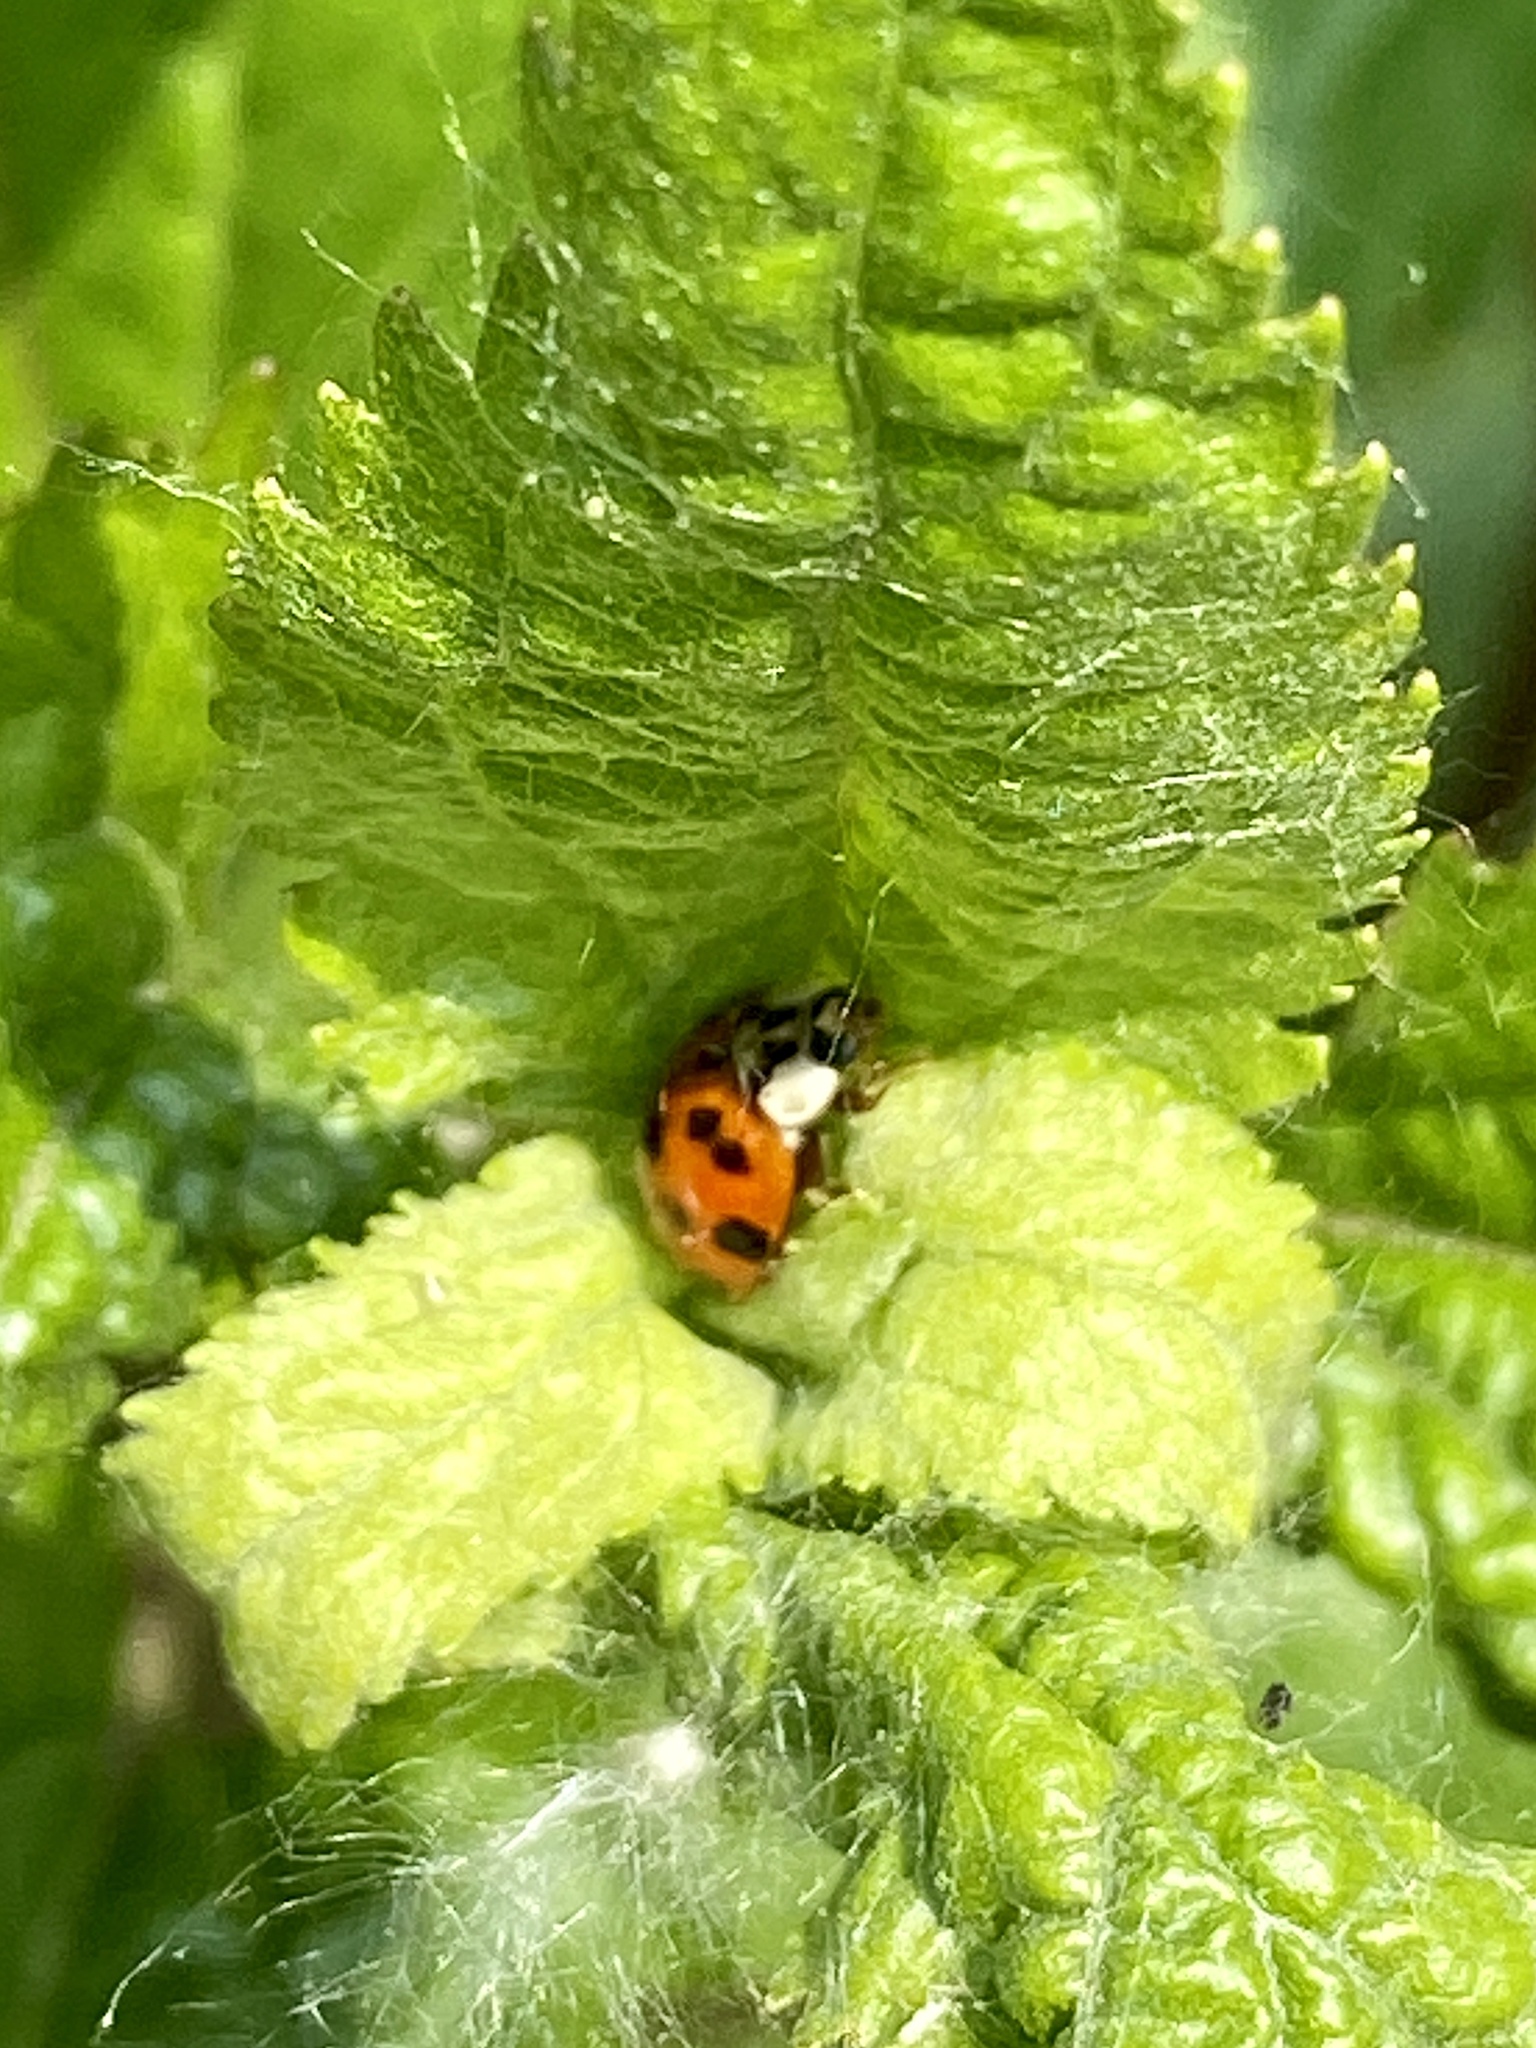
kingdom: Animalia
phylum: Arthropoda
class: Insecta
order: Coleoptera
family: Coccinellidae
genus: Harmonia
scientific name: Harmonia axyridis
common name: Harlequin ladybird
